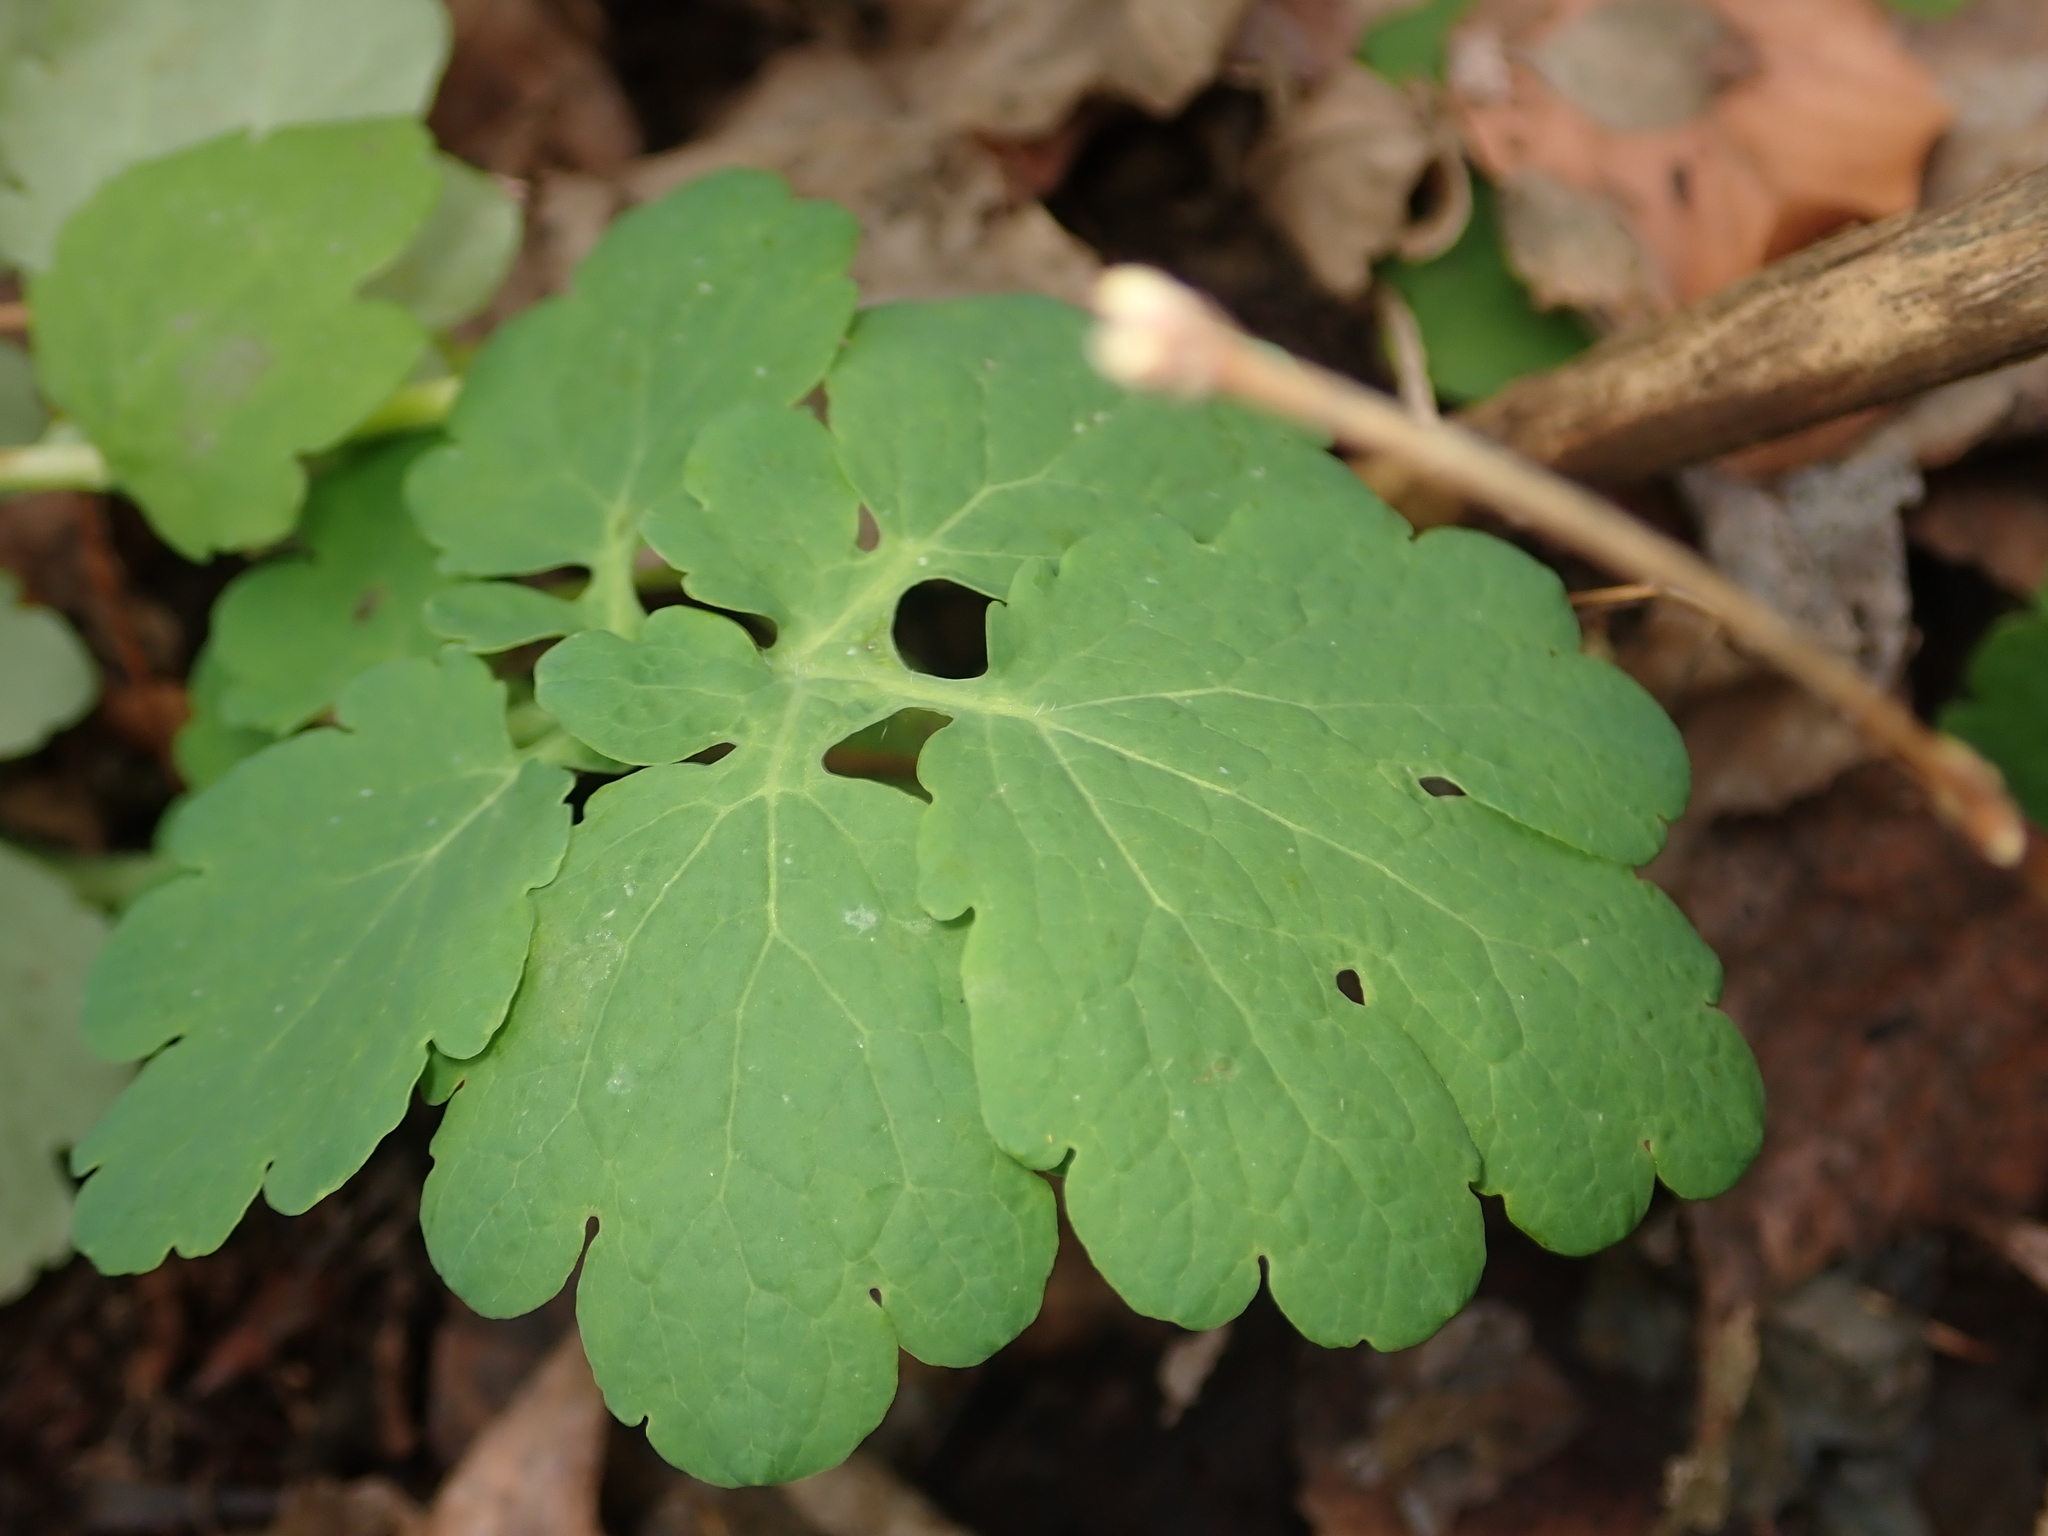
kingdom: Plantae
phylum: Tracheophyta
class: Magnoliopsida
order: Ranunculales
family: Papaveraceae
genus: Chelidonium
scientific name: Chelidonium majus
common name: Greater celandine
